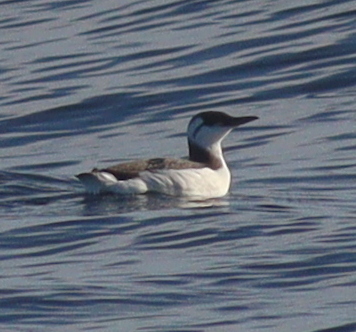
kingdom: Animalia
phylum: Chordata
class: Aves
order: Charadriiformes
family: Alcidae
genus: Uria
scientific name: Uria aalge
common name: Common murre
